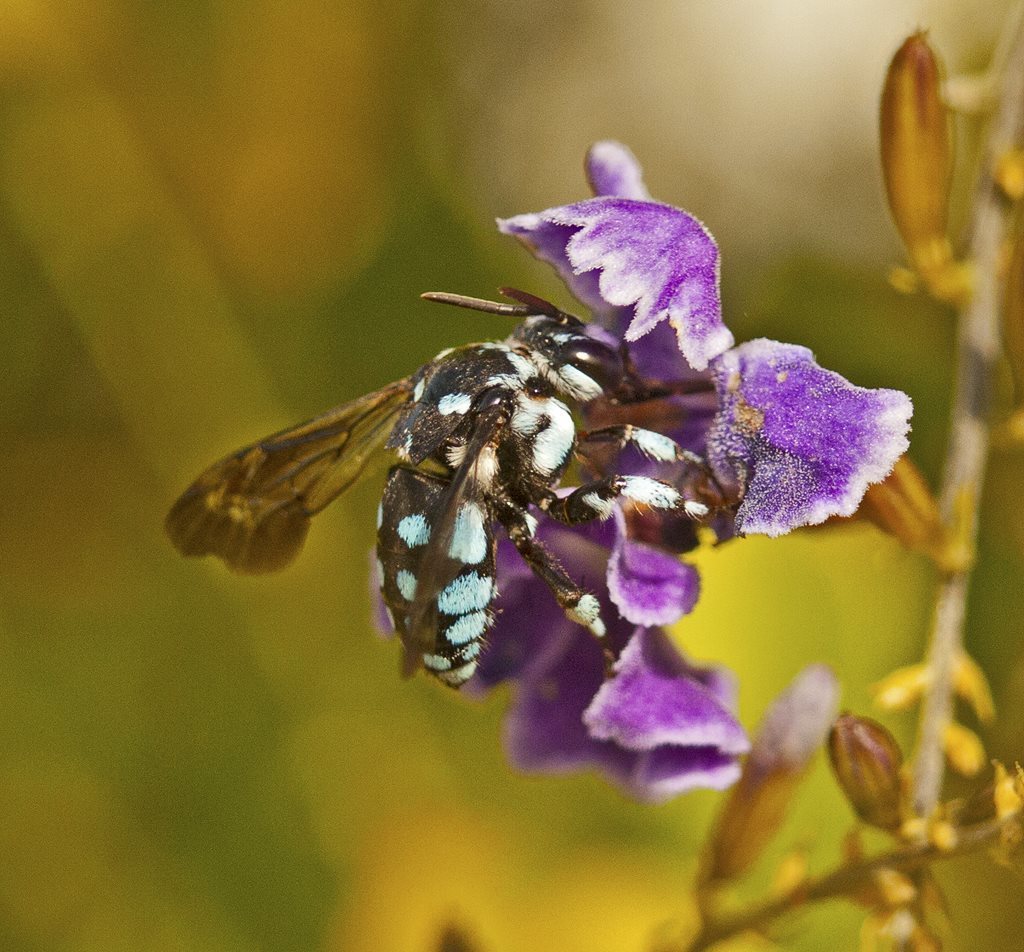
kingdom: Animalia
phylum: Arthropoda
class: Insecta
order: Hymenoptera
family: Apidae
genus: Thyreus
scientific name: Thyreus caeruleopunctatus
